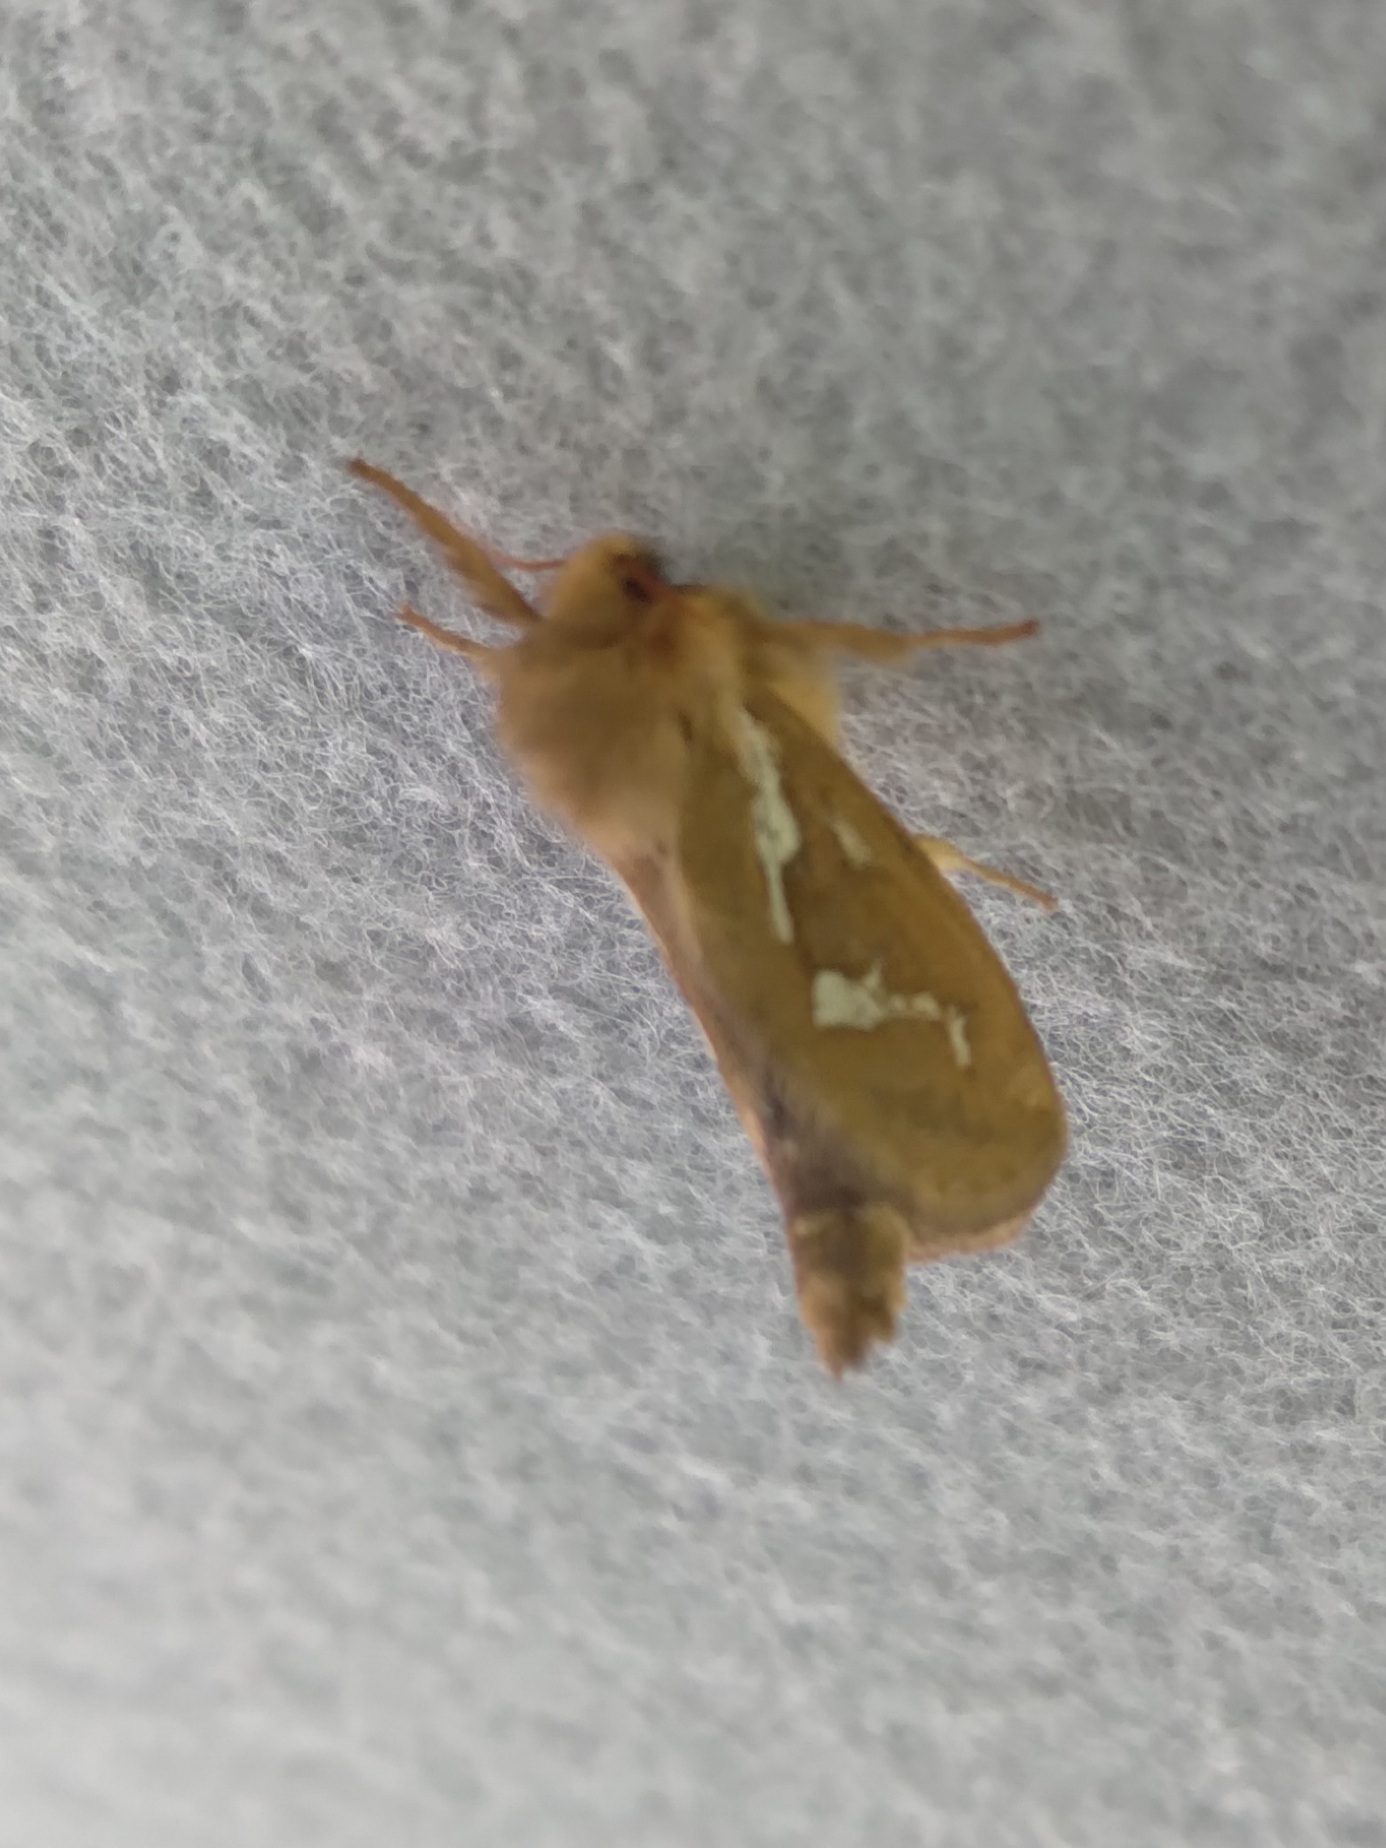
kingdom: Animalia
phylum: Arthropoda
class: Insecta
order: Lepidoptera
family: Hepialidae
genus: Korscheltellus
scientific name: Korscheltellus lupulina
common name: Common swift
